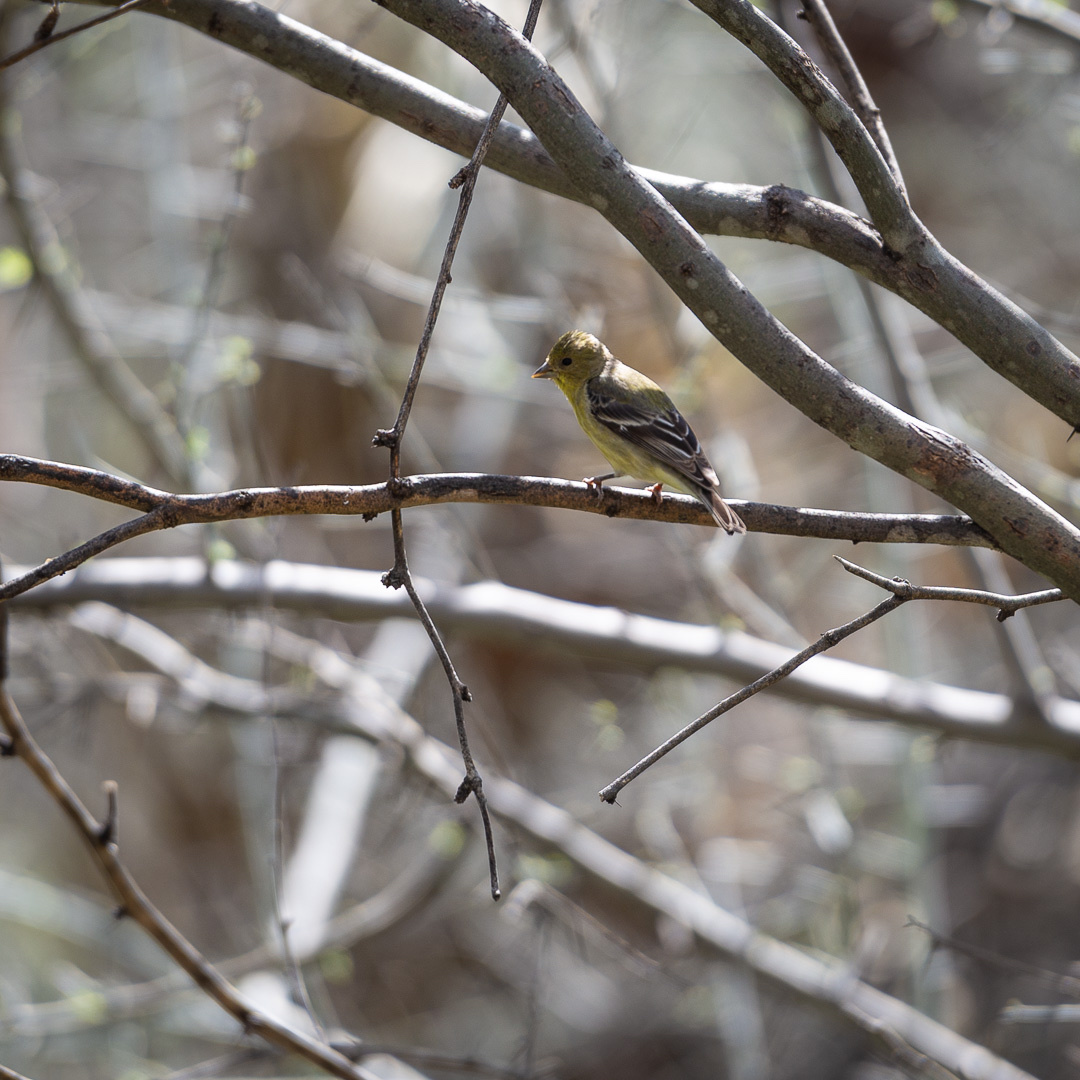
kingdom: Animalia
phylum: Chordata
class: Aves
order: Passeriformes
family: Fringillidae
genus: Spinus
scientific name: Spinus psaltria
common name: Lesser goldfinch
